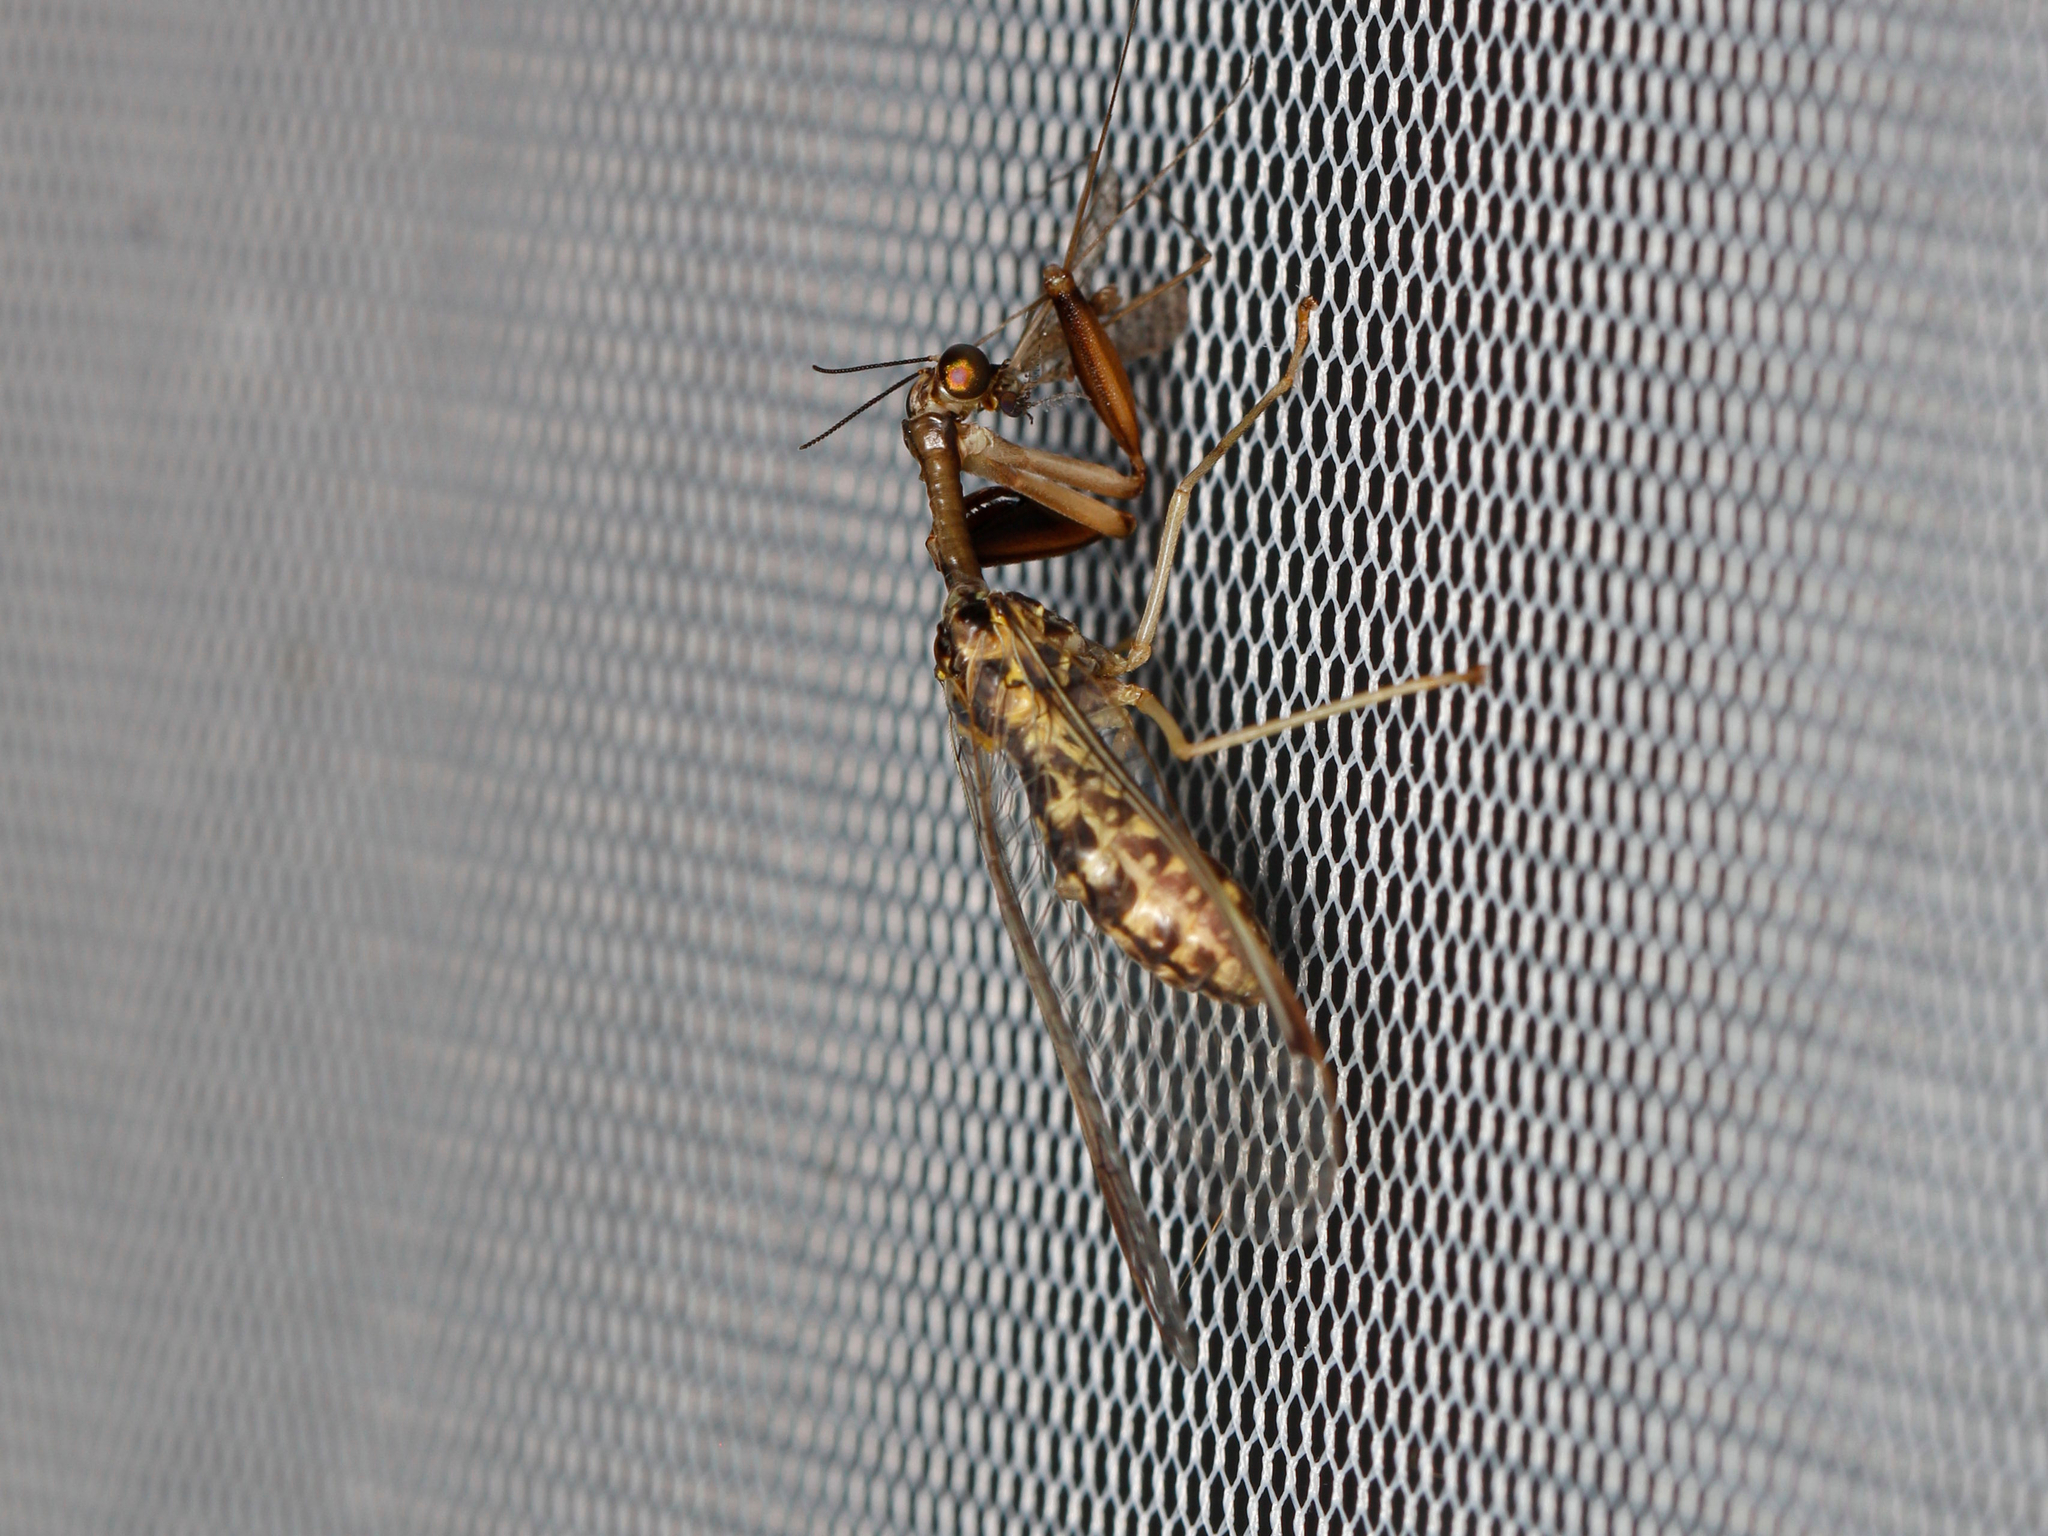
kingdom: Animalia
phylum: Arthropoda
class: Insecta
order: Neuroptera
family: Mantispidae
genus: Dicromantispa
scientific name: Dicromantispa sayi
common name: Say's mantidfly
